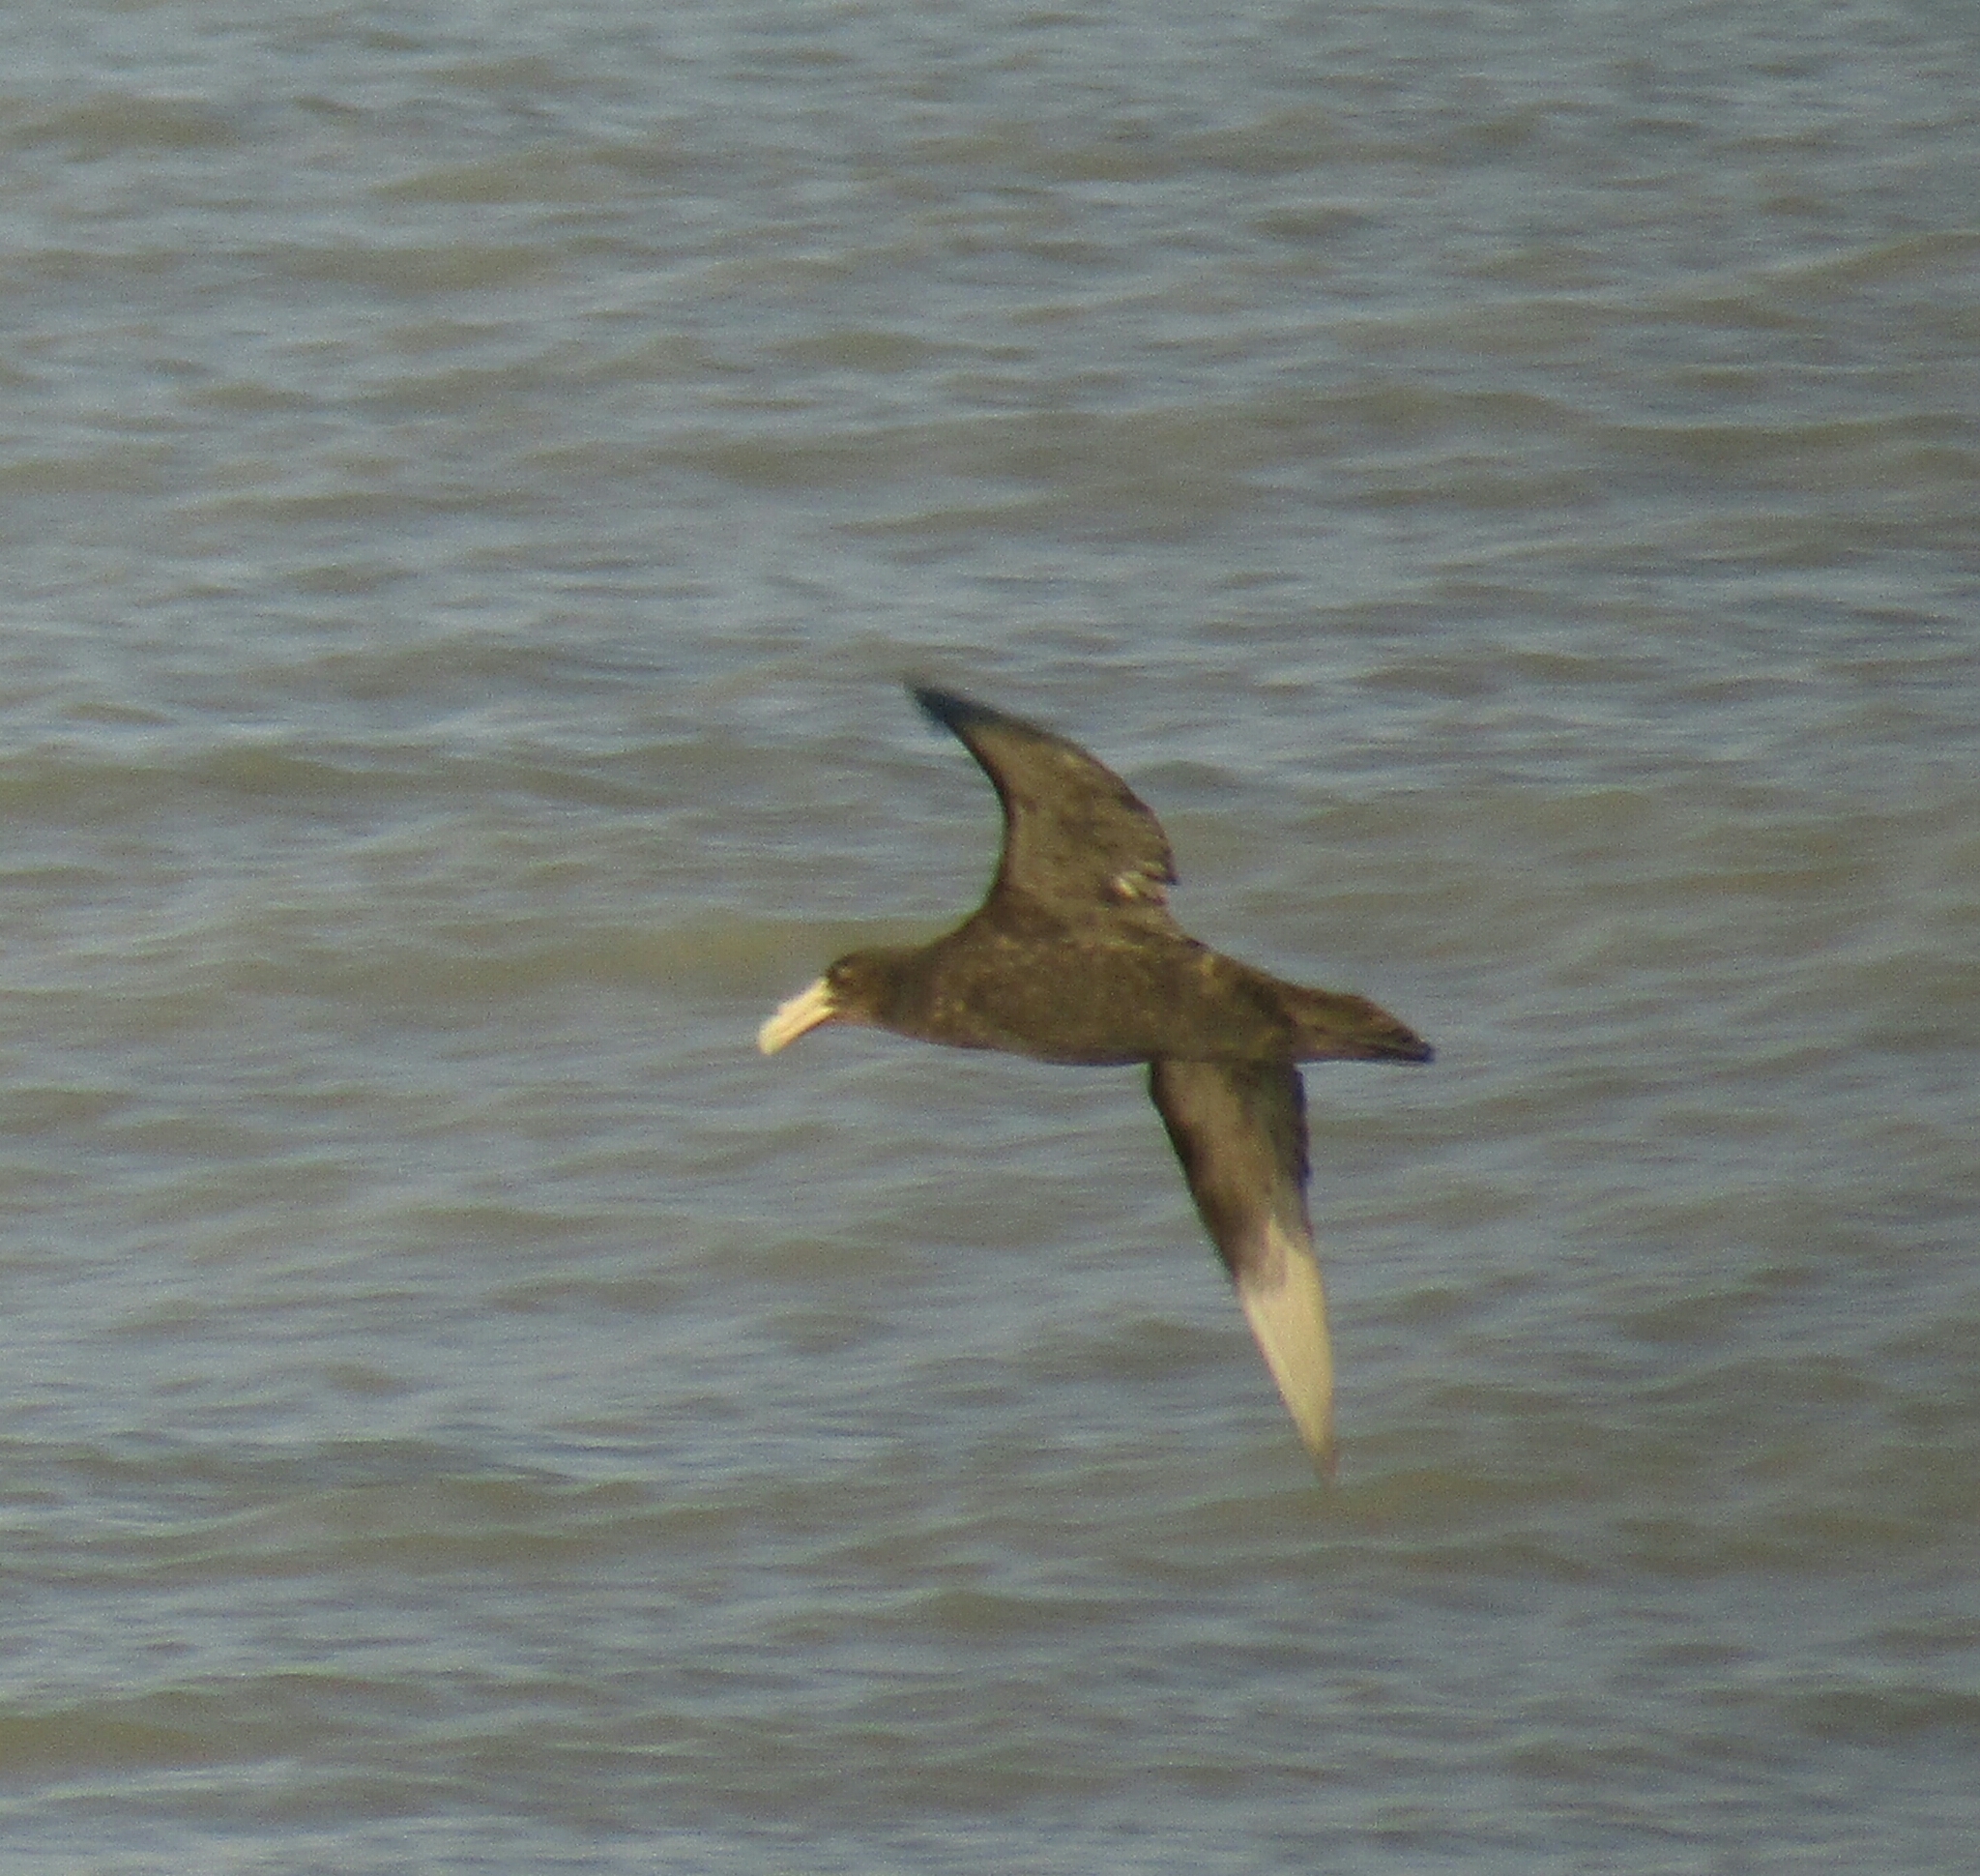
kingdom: Animalia
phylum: Chordata
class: Aves
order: Procellariiformes
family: Procellariidae
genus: Macronectes
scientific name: Macronectes giganteus
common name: Southern giant petrel
